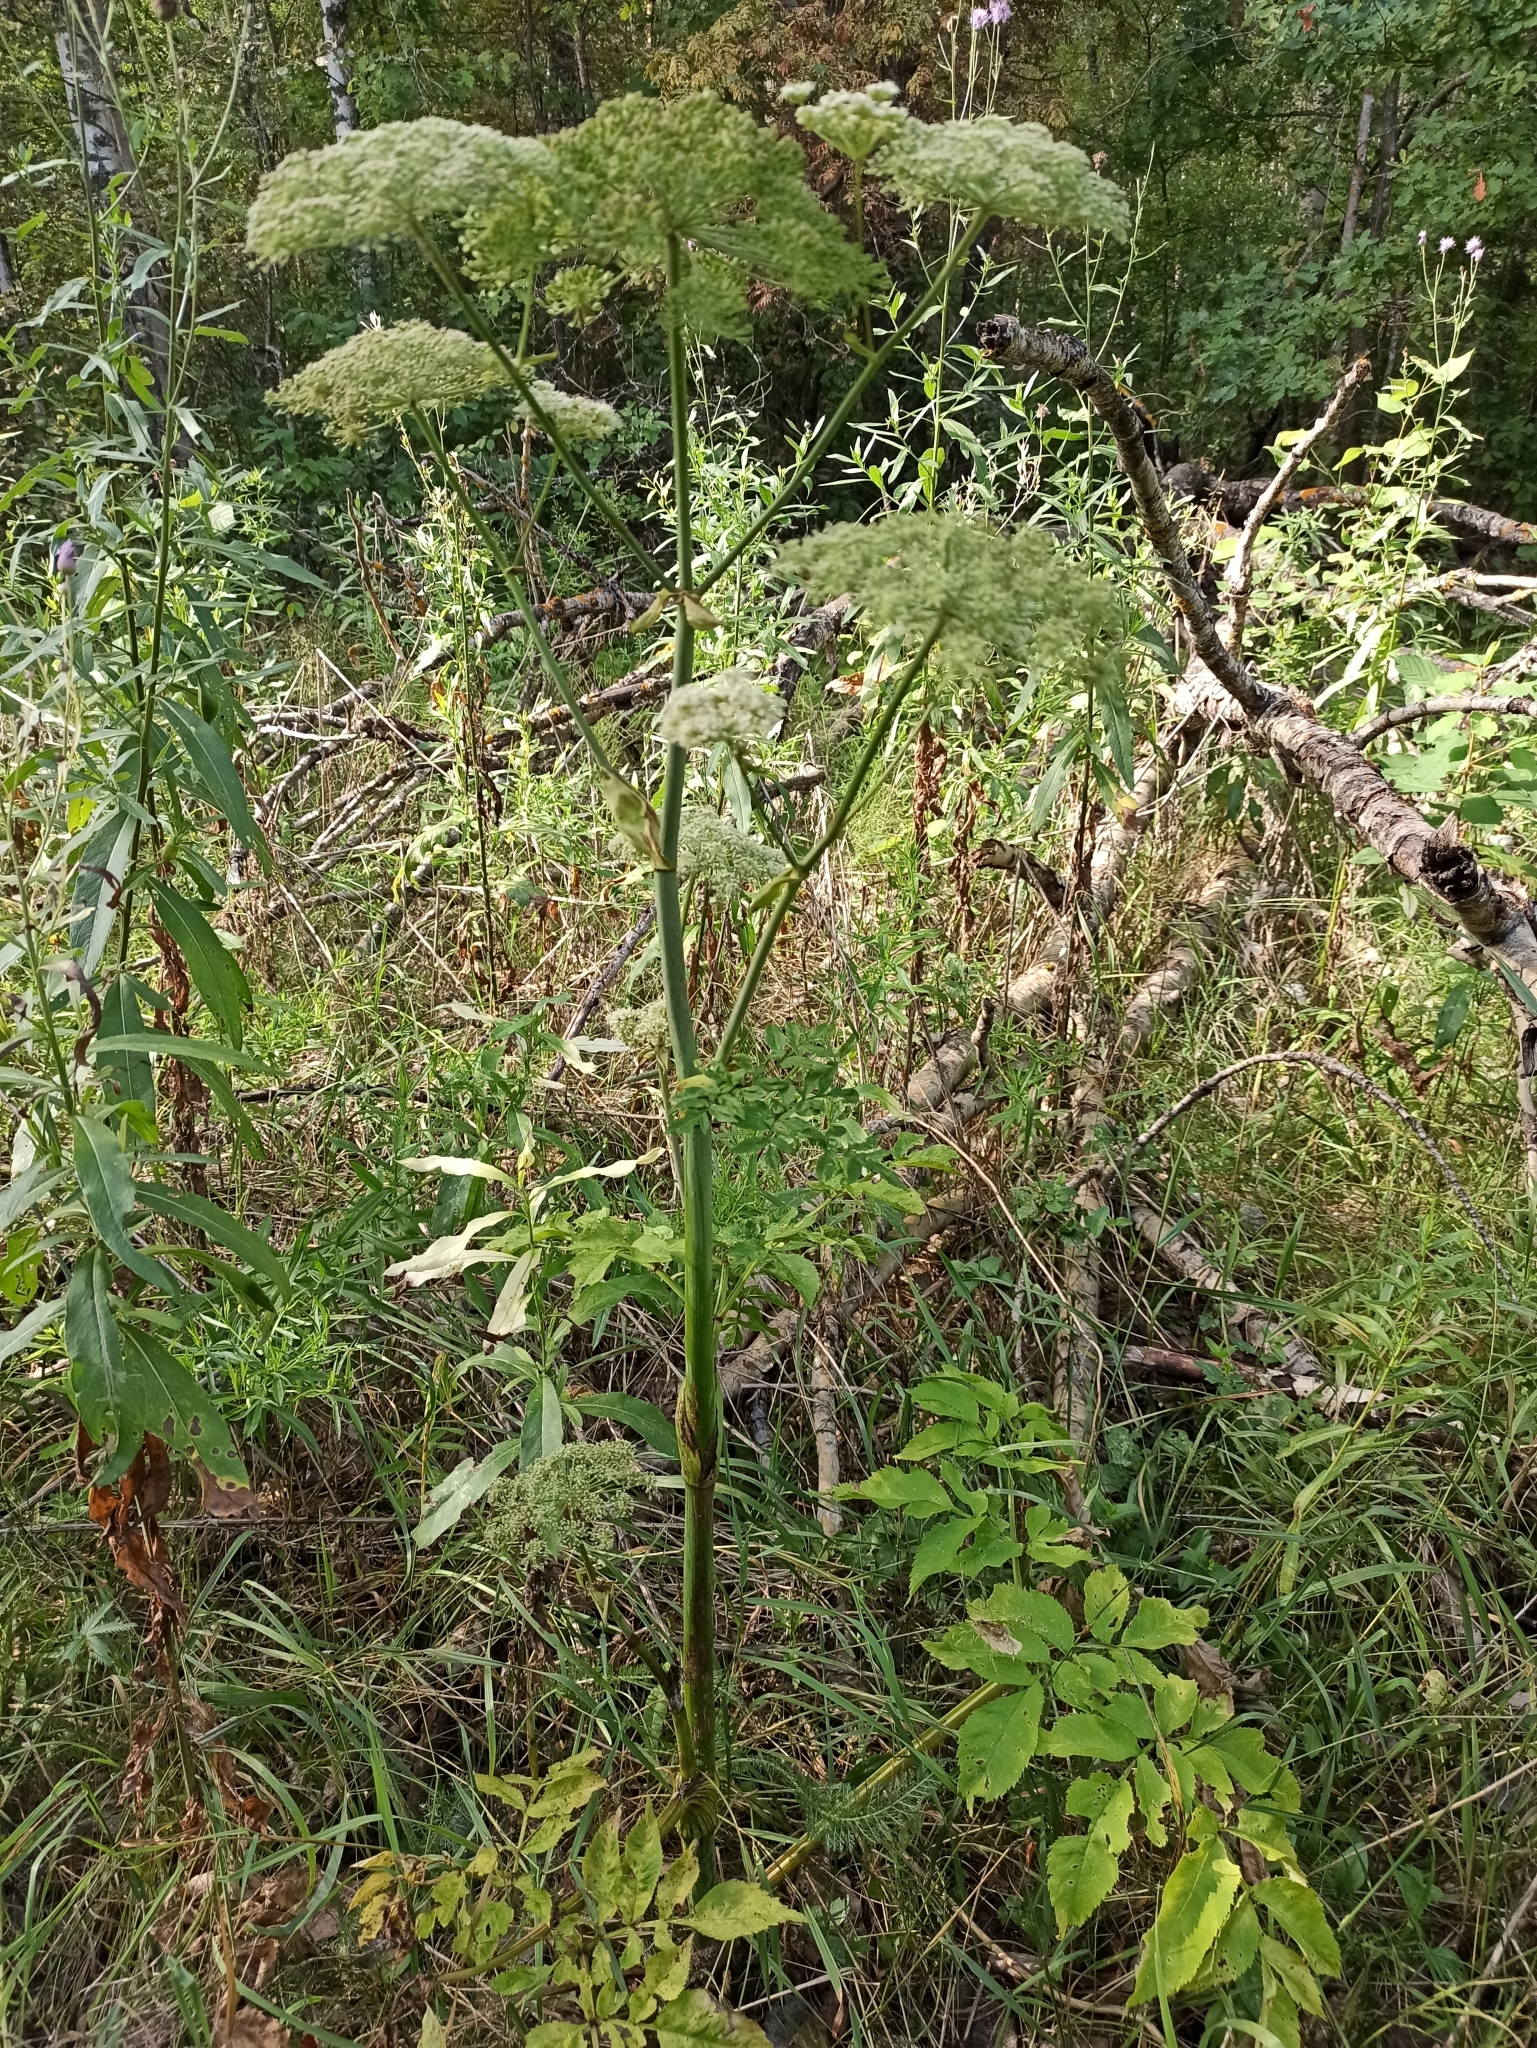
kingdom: Plantae
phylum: Tracheophyta
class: Magnoliopsida
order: Apiales
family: Apiaceae
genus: Angelica
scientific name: Angelica sylvestris
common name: Wild angelica
